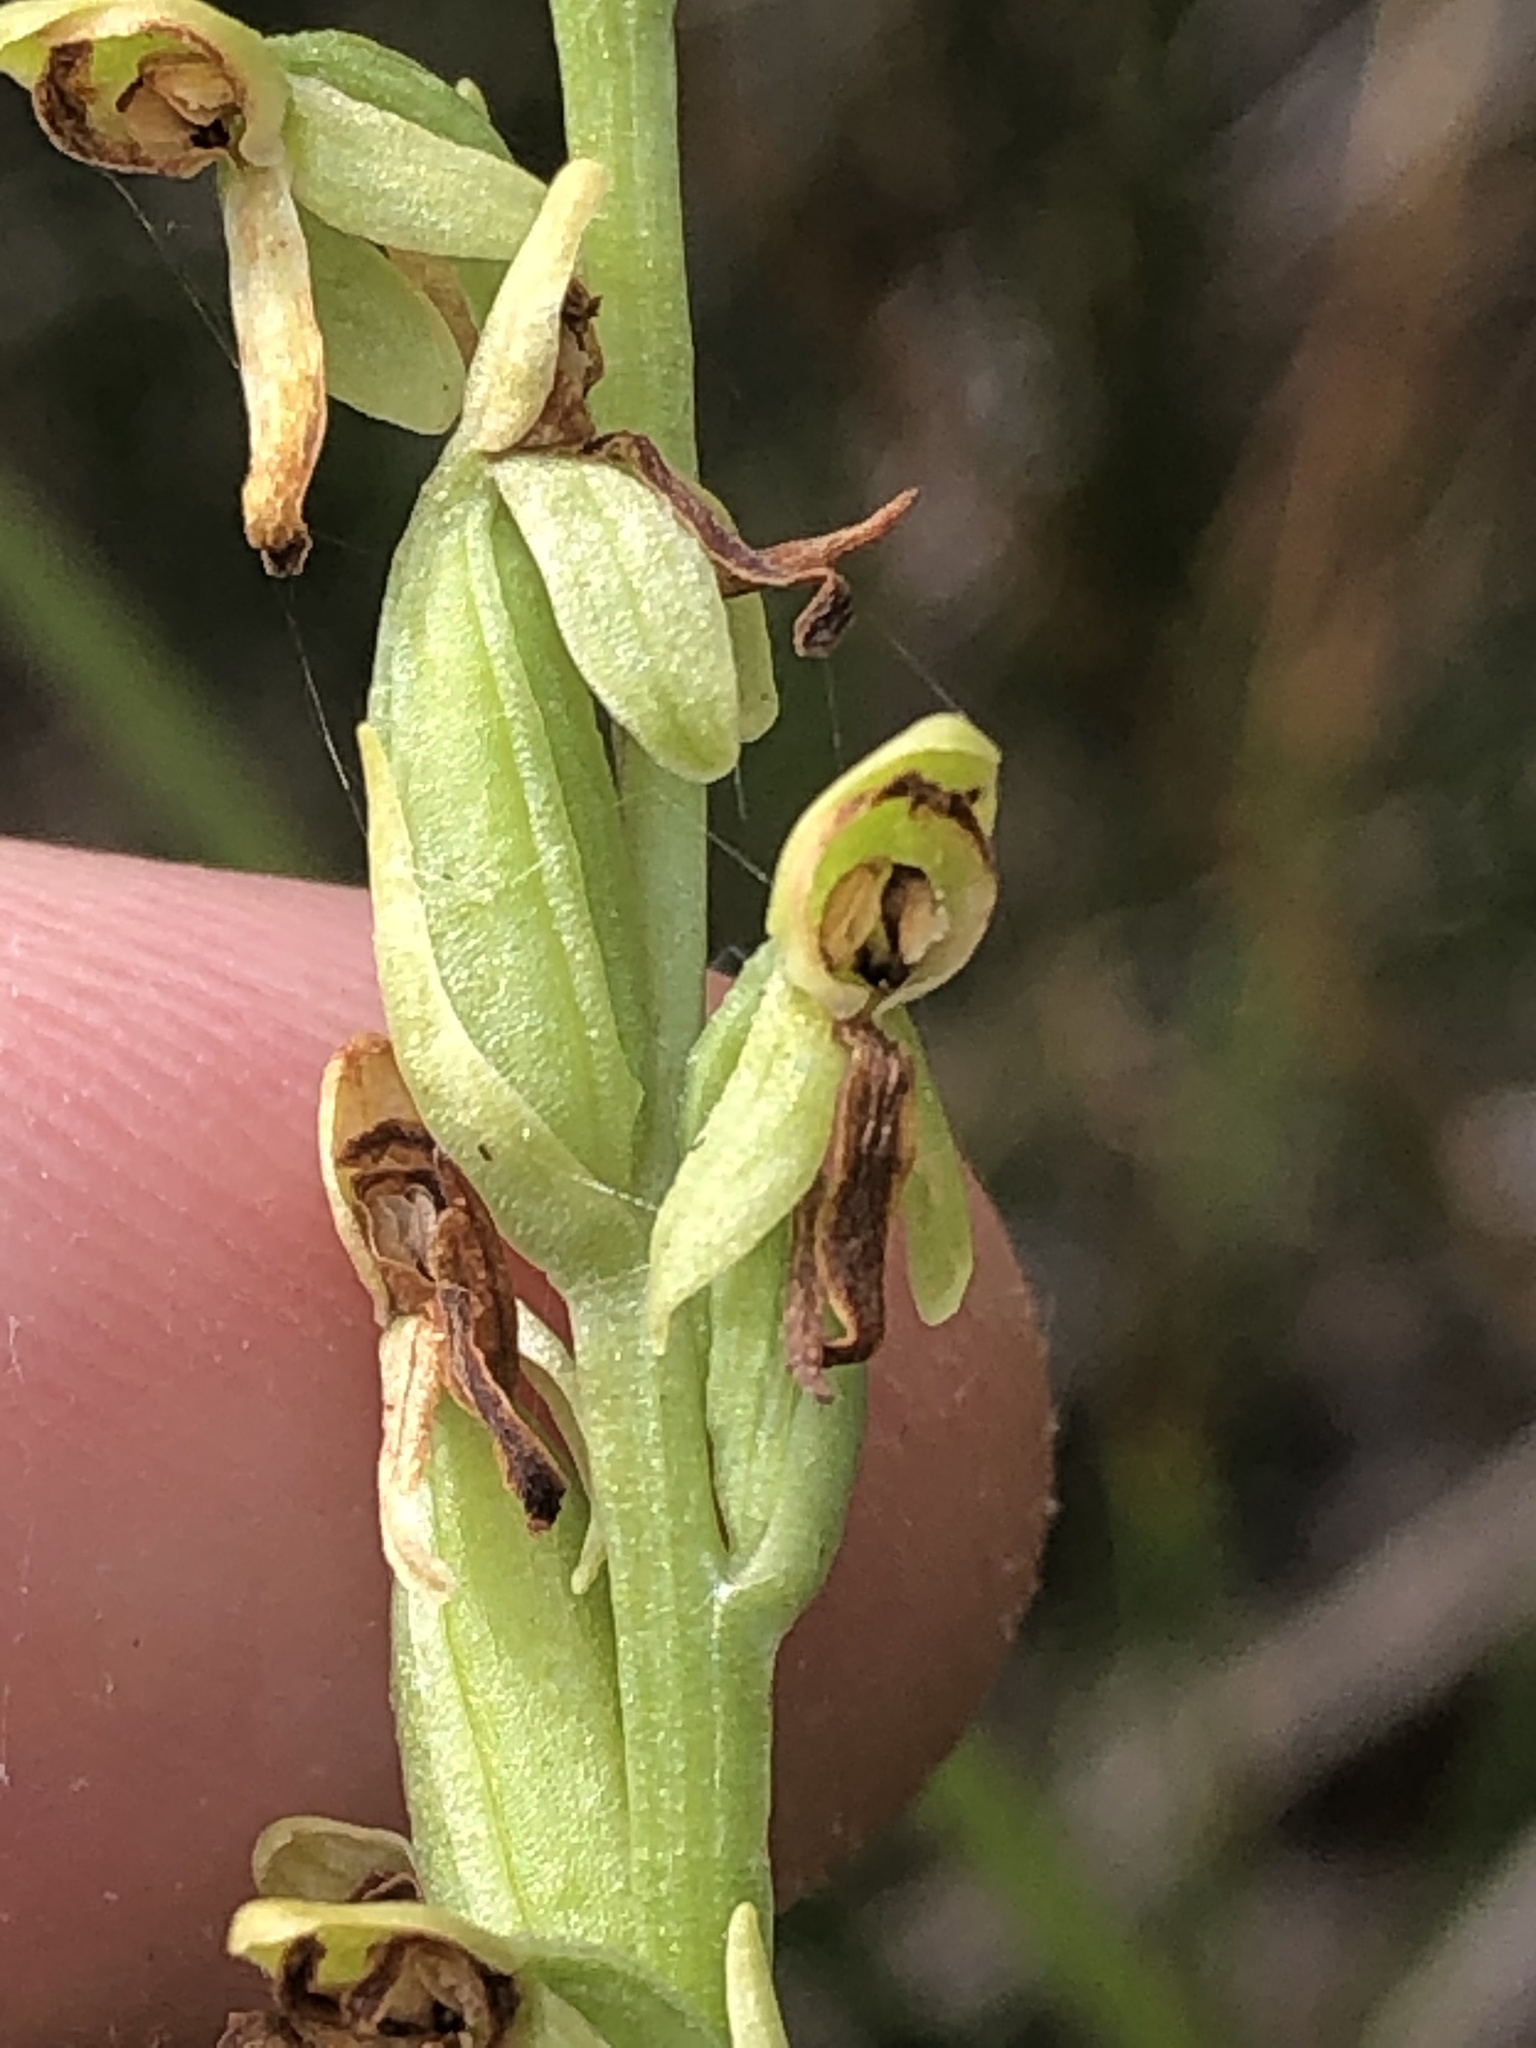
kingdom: Plantae
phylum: Tracheophyta
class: Liliopsida
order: Asparagales
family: Orchidaceae
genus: Platanthera
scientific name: Platanthera sparsiflora
